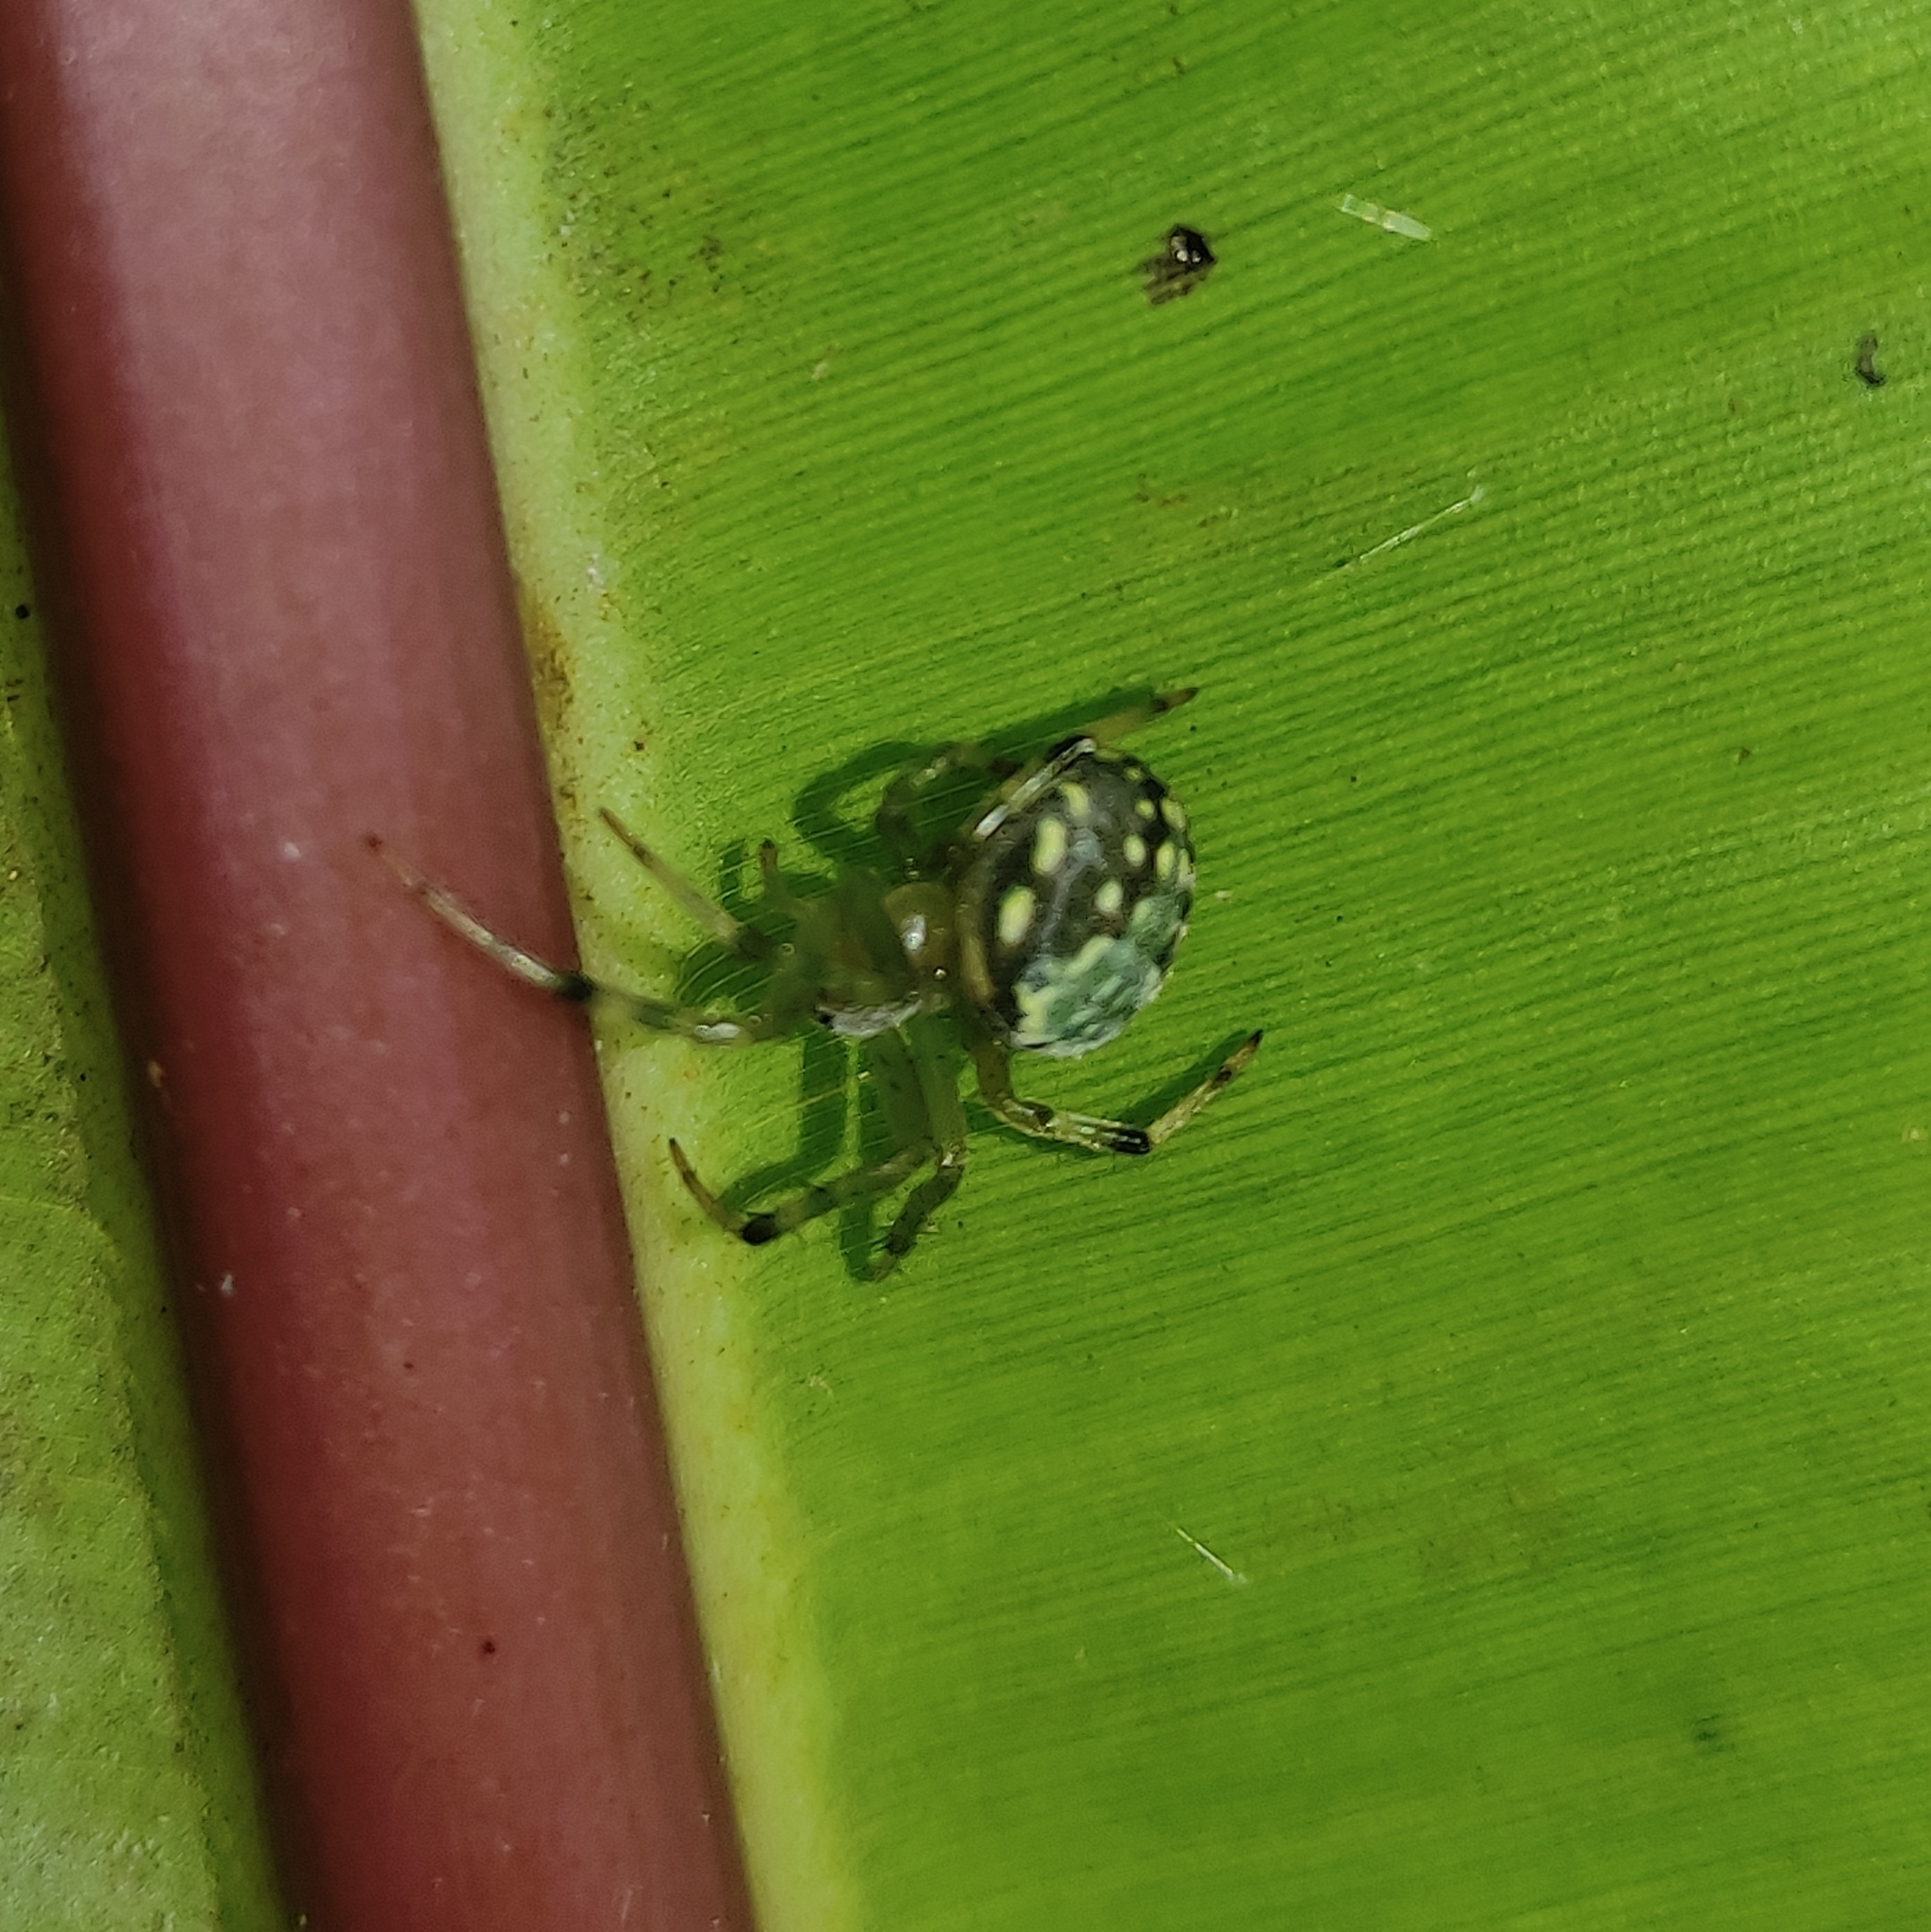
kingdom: Animalia
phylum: Arthropoda
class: Arachnida
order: Araneae
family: Araneidae
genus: Araneus
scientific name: Araneus workmani
